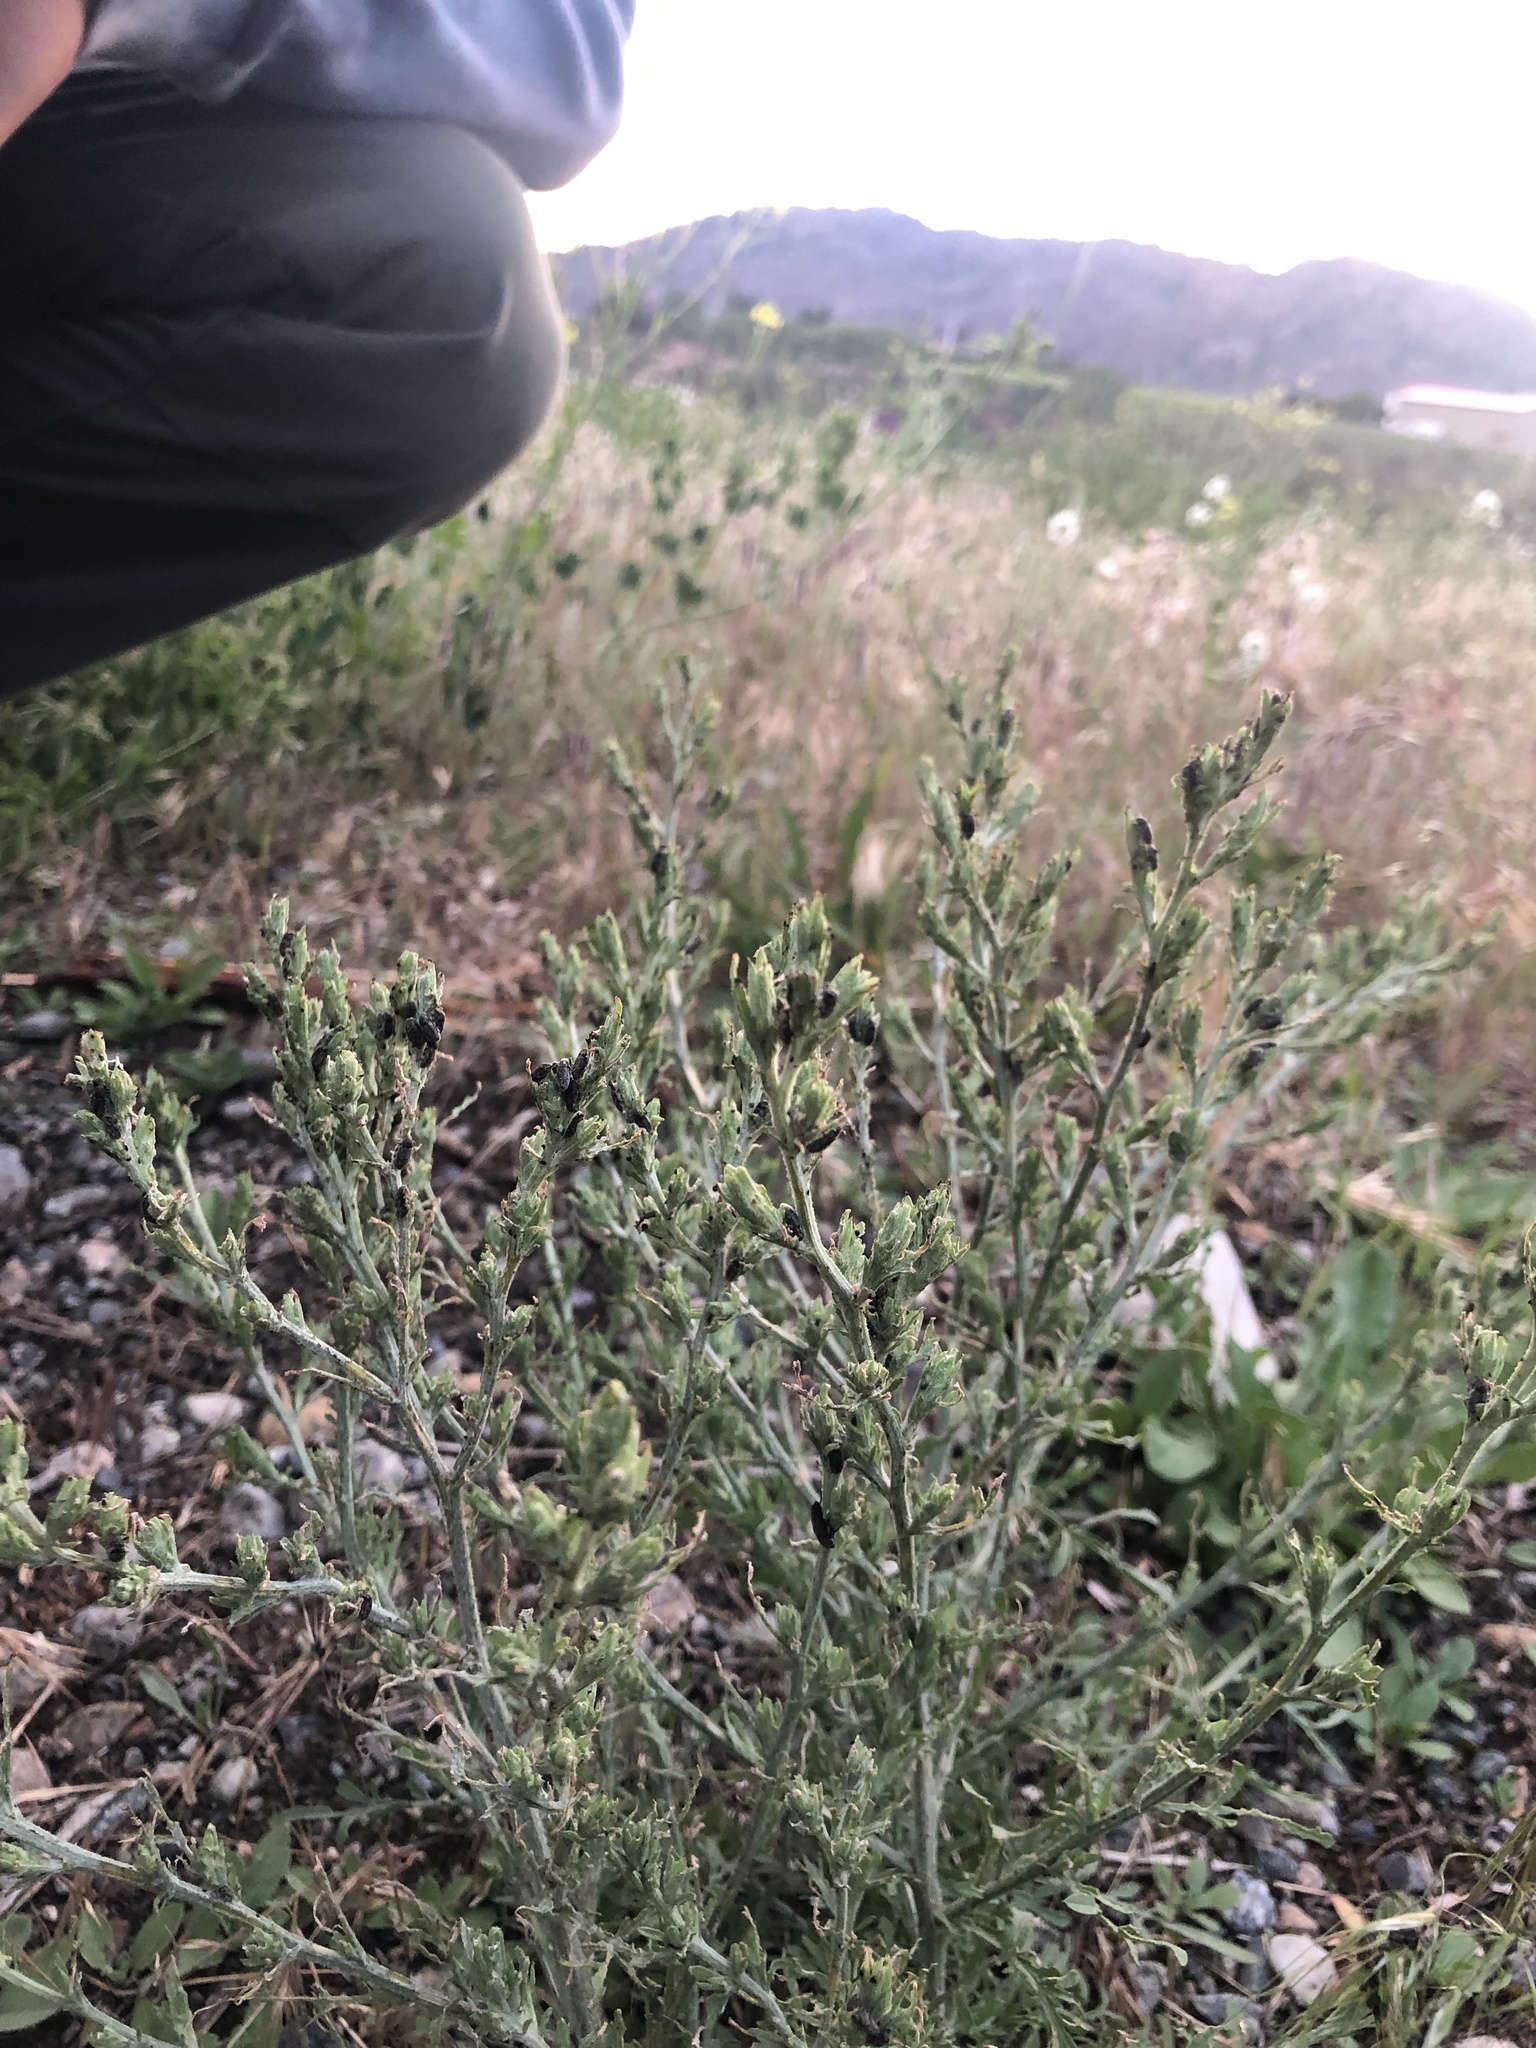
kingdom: Animalia
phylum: Arthropoda
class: Insecta
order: Coleoptera
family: Curculionidae
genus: Bangasternus
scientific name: Bangasternus fausti
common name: Broad-nosed knapweed seedhead weevil
